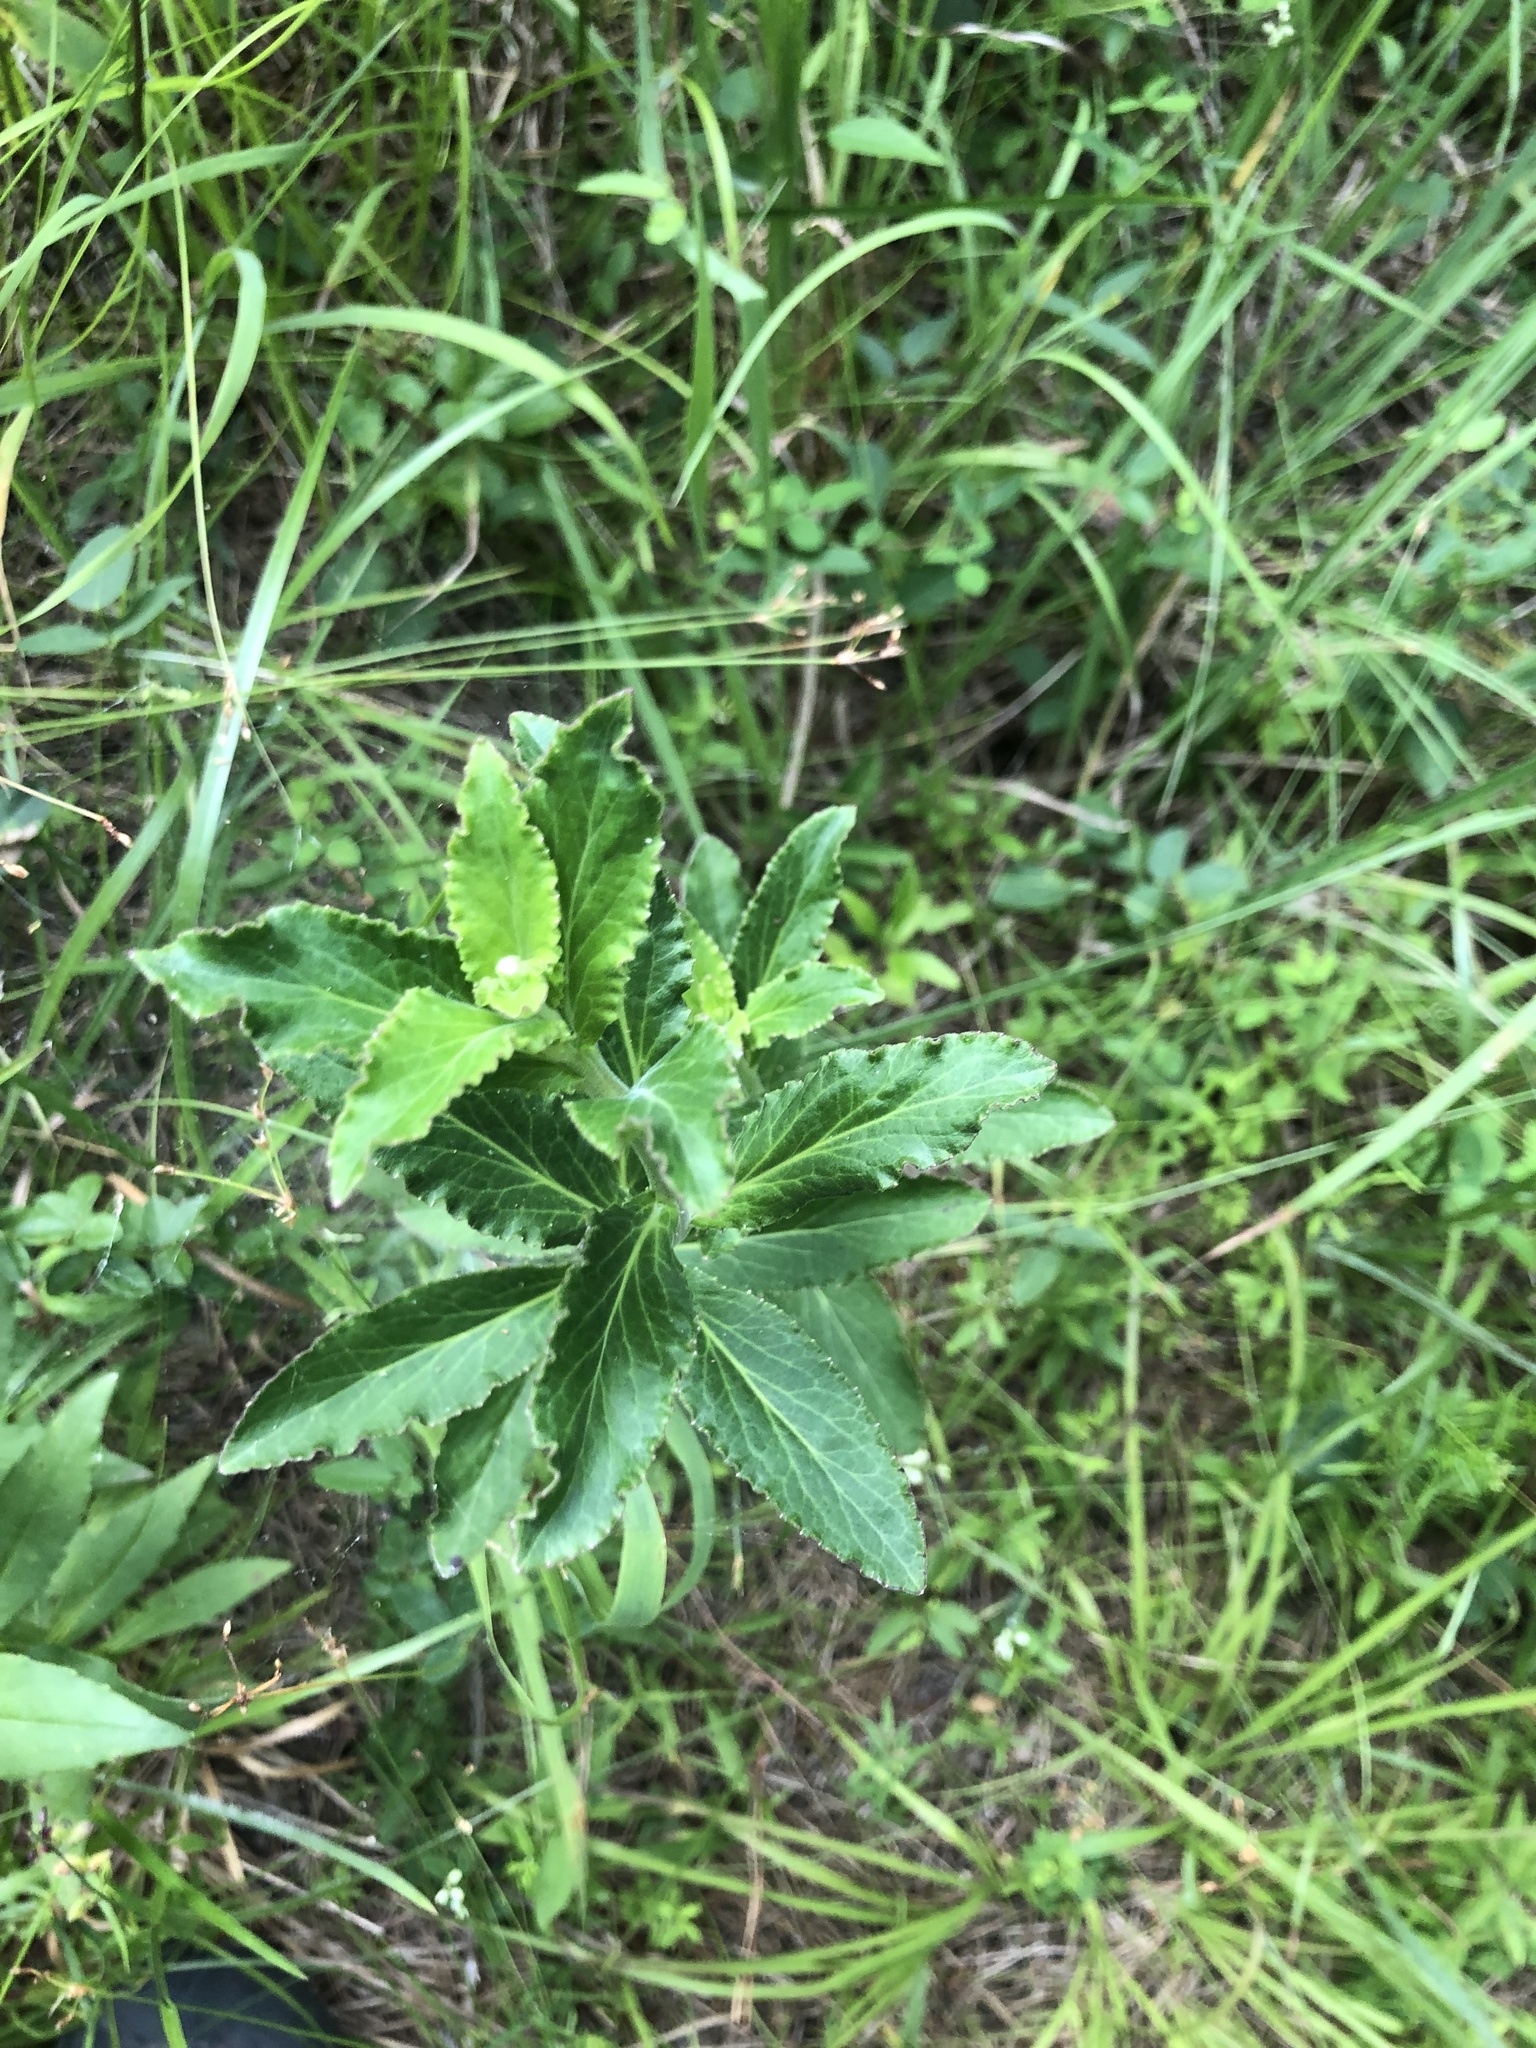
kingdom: Plantae
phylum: Tracheophyta
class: Magnoliopsida
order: Asterales
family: Campanulaceae
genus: Lobelia
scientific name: Lobelia georgiana
